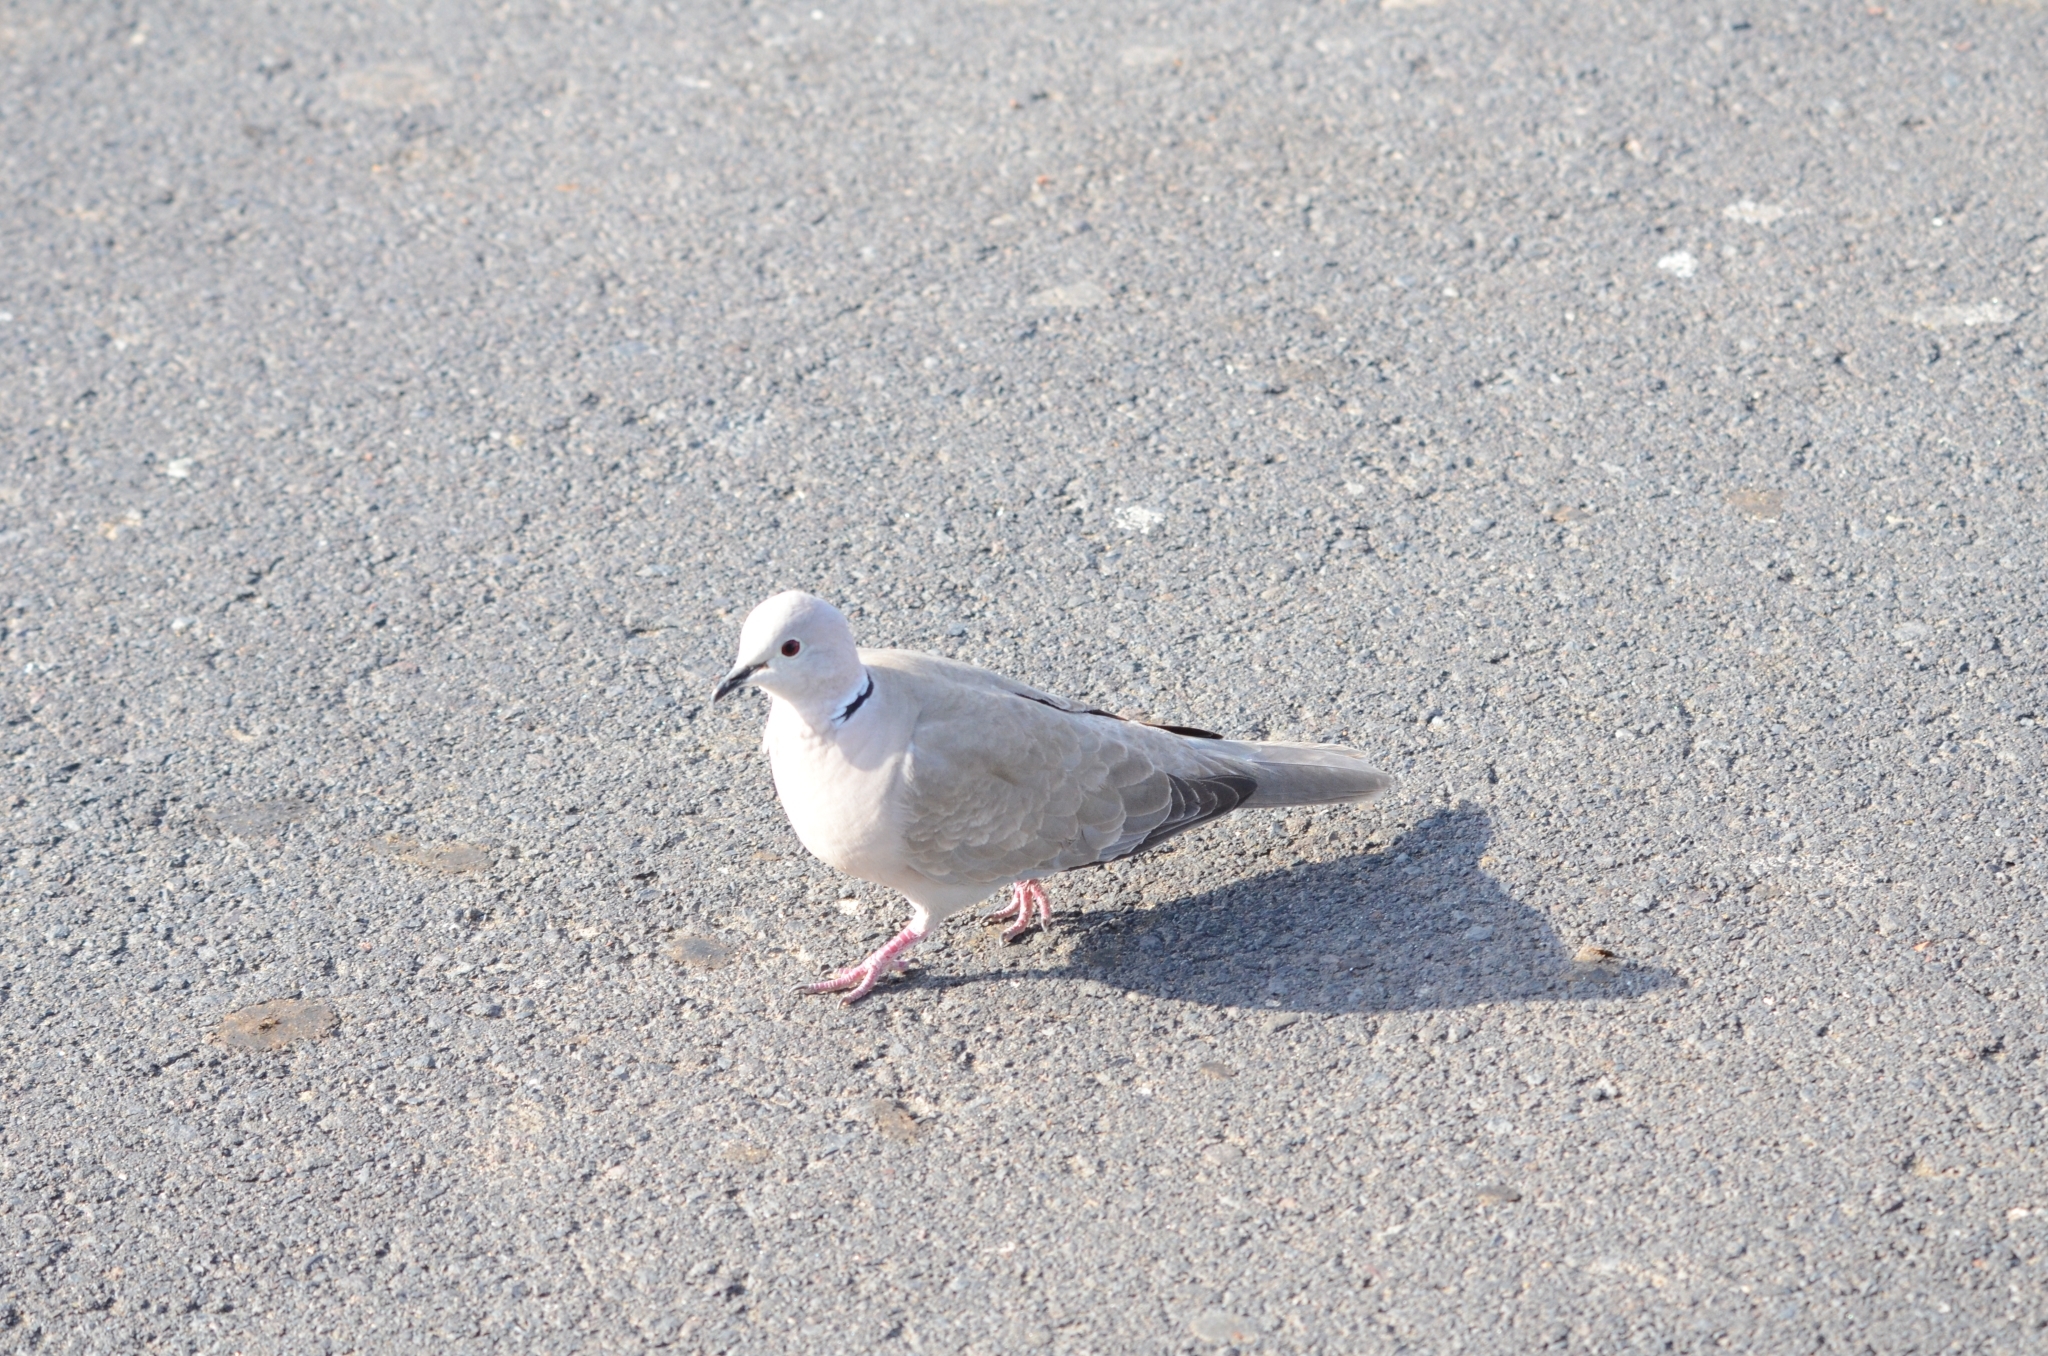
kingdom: Animalia
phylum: Chordata
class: Aves
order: Columbiformes
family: Columbidae
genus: Streptopelia
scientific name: Streptopelia decaocto
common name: Eurasian collared dove
